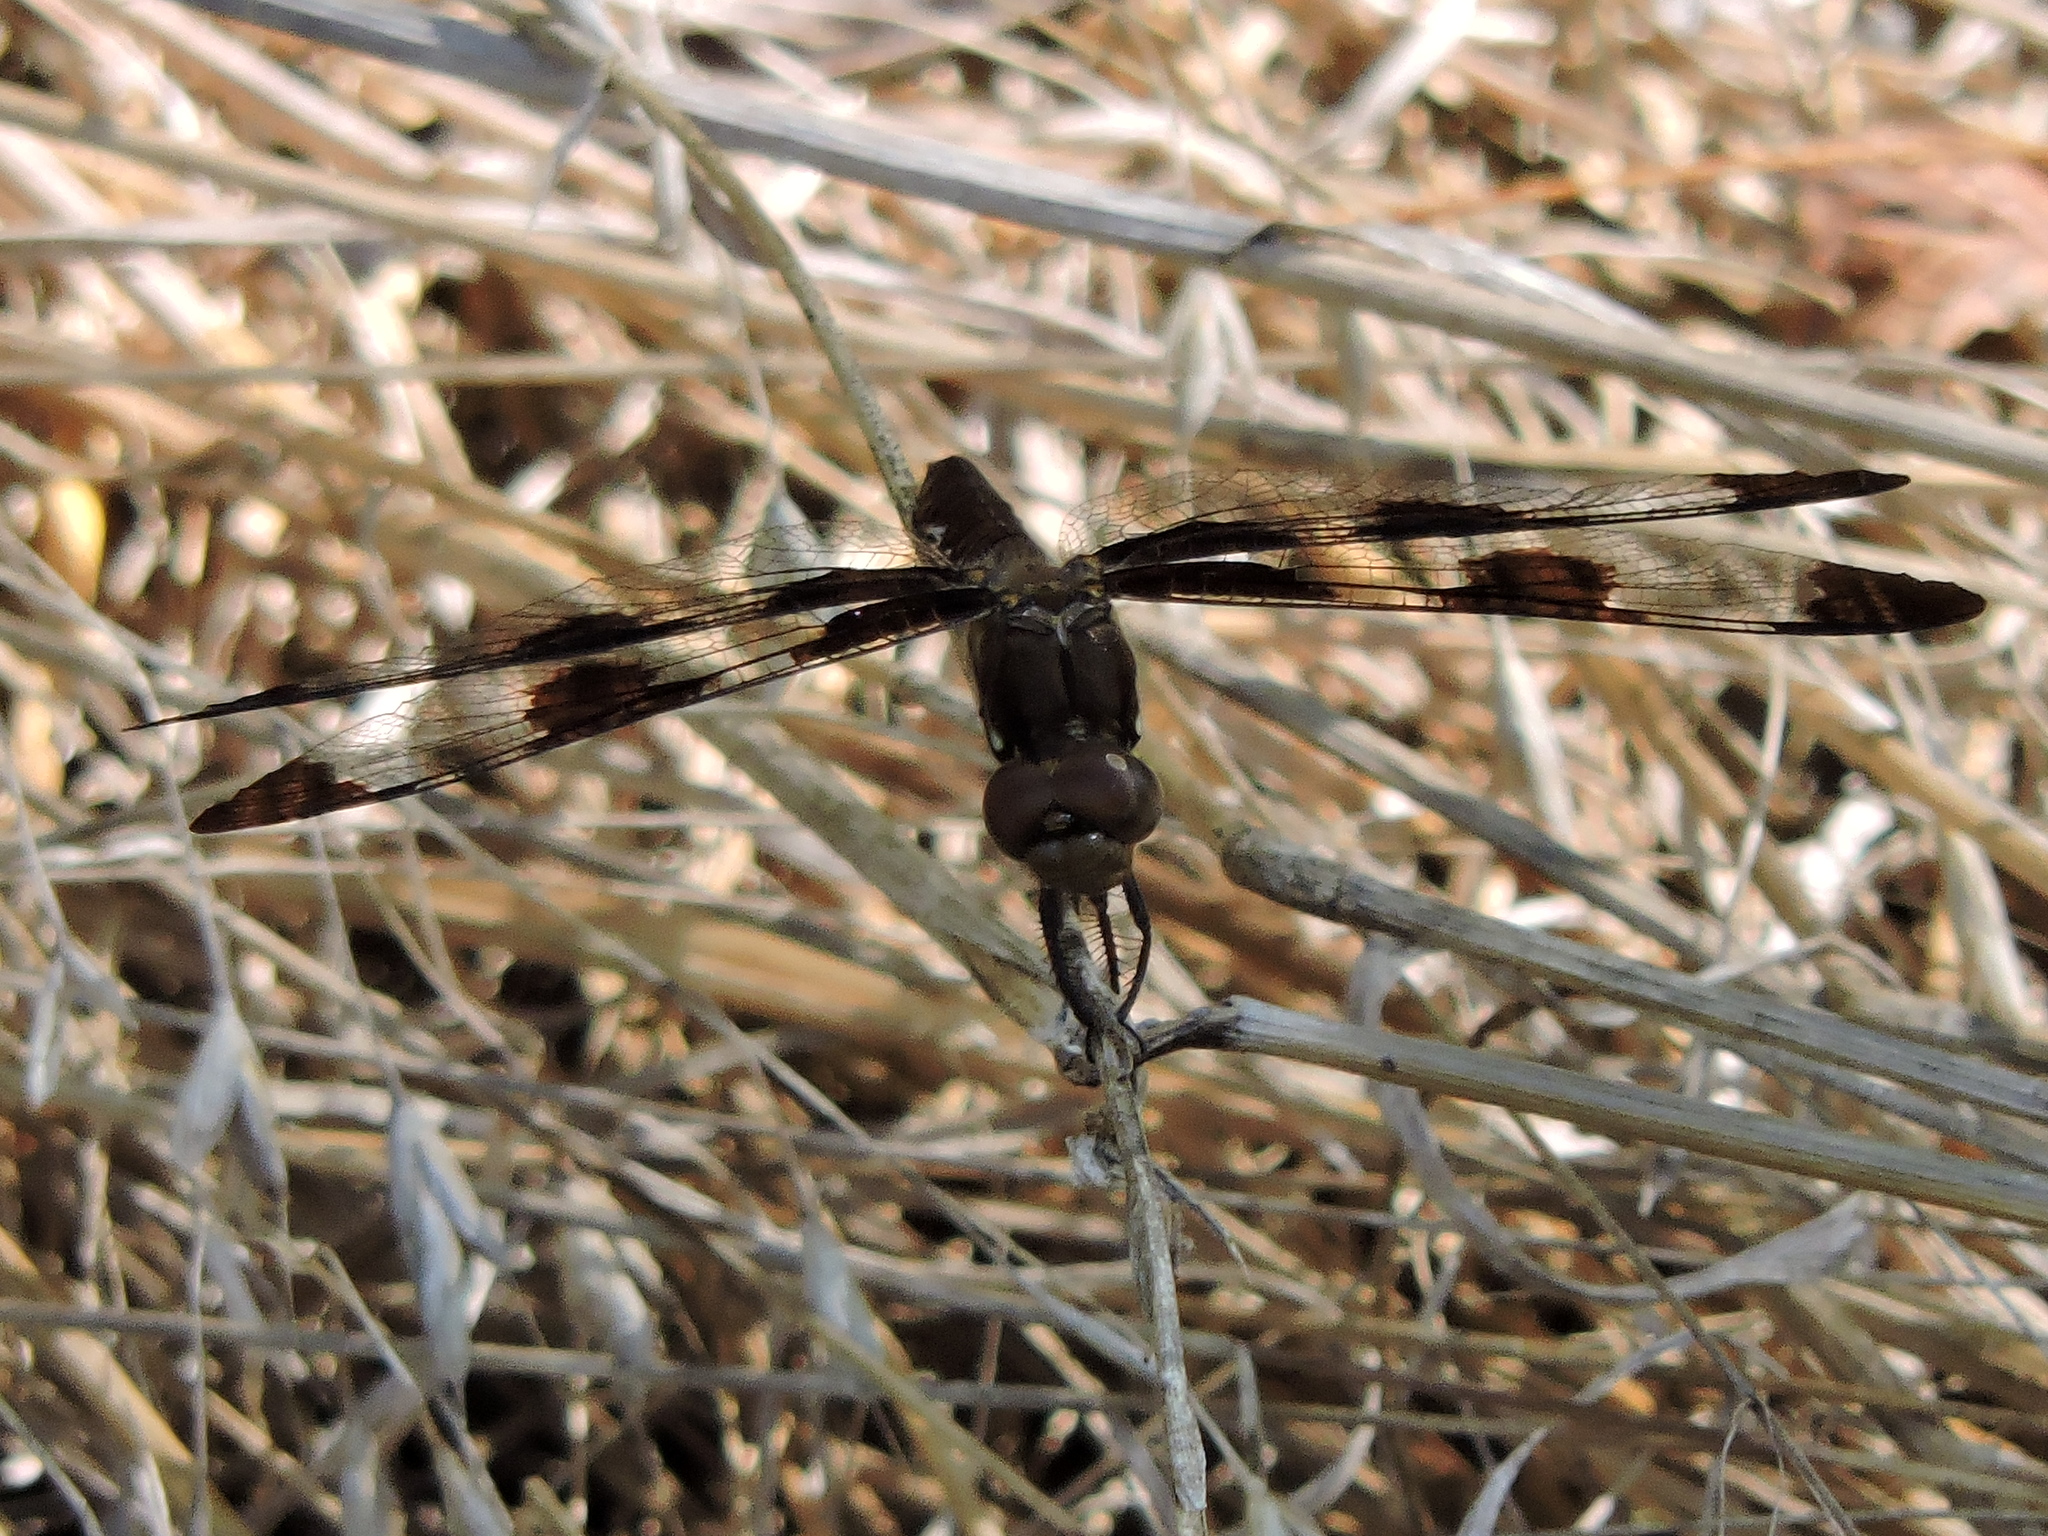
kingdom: Animalia
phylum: Arthropoda
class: Insecta
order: Odonata
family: Libellulidae
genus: Plathemis
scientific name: Plathemis lydia
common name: Common whitetail
